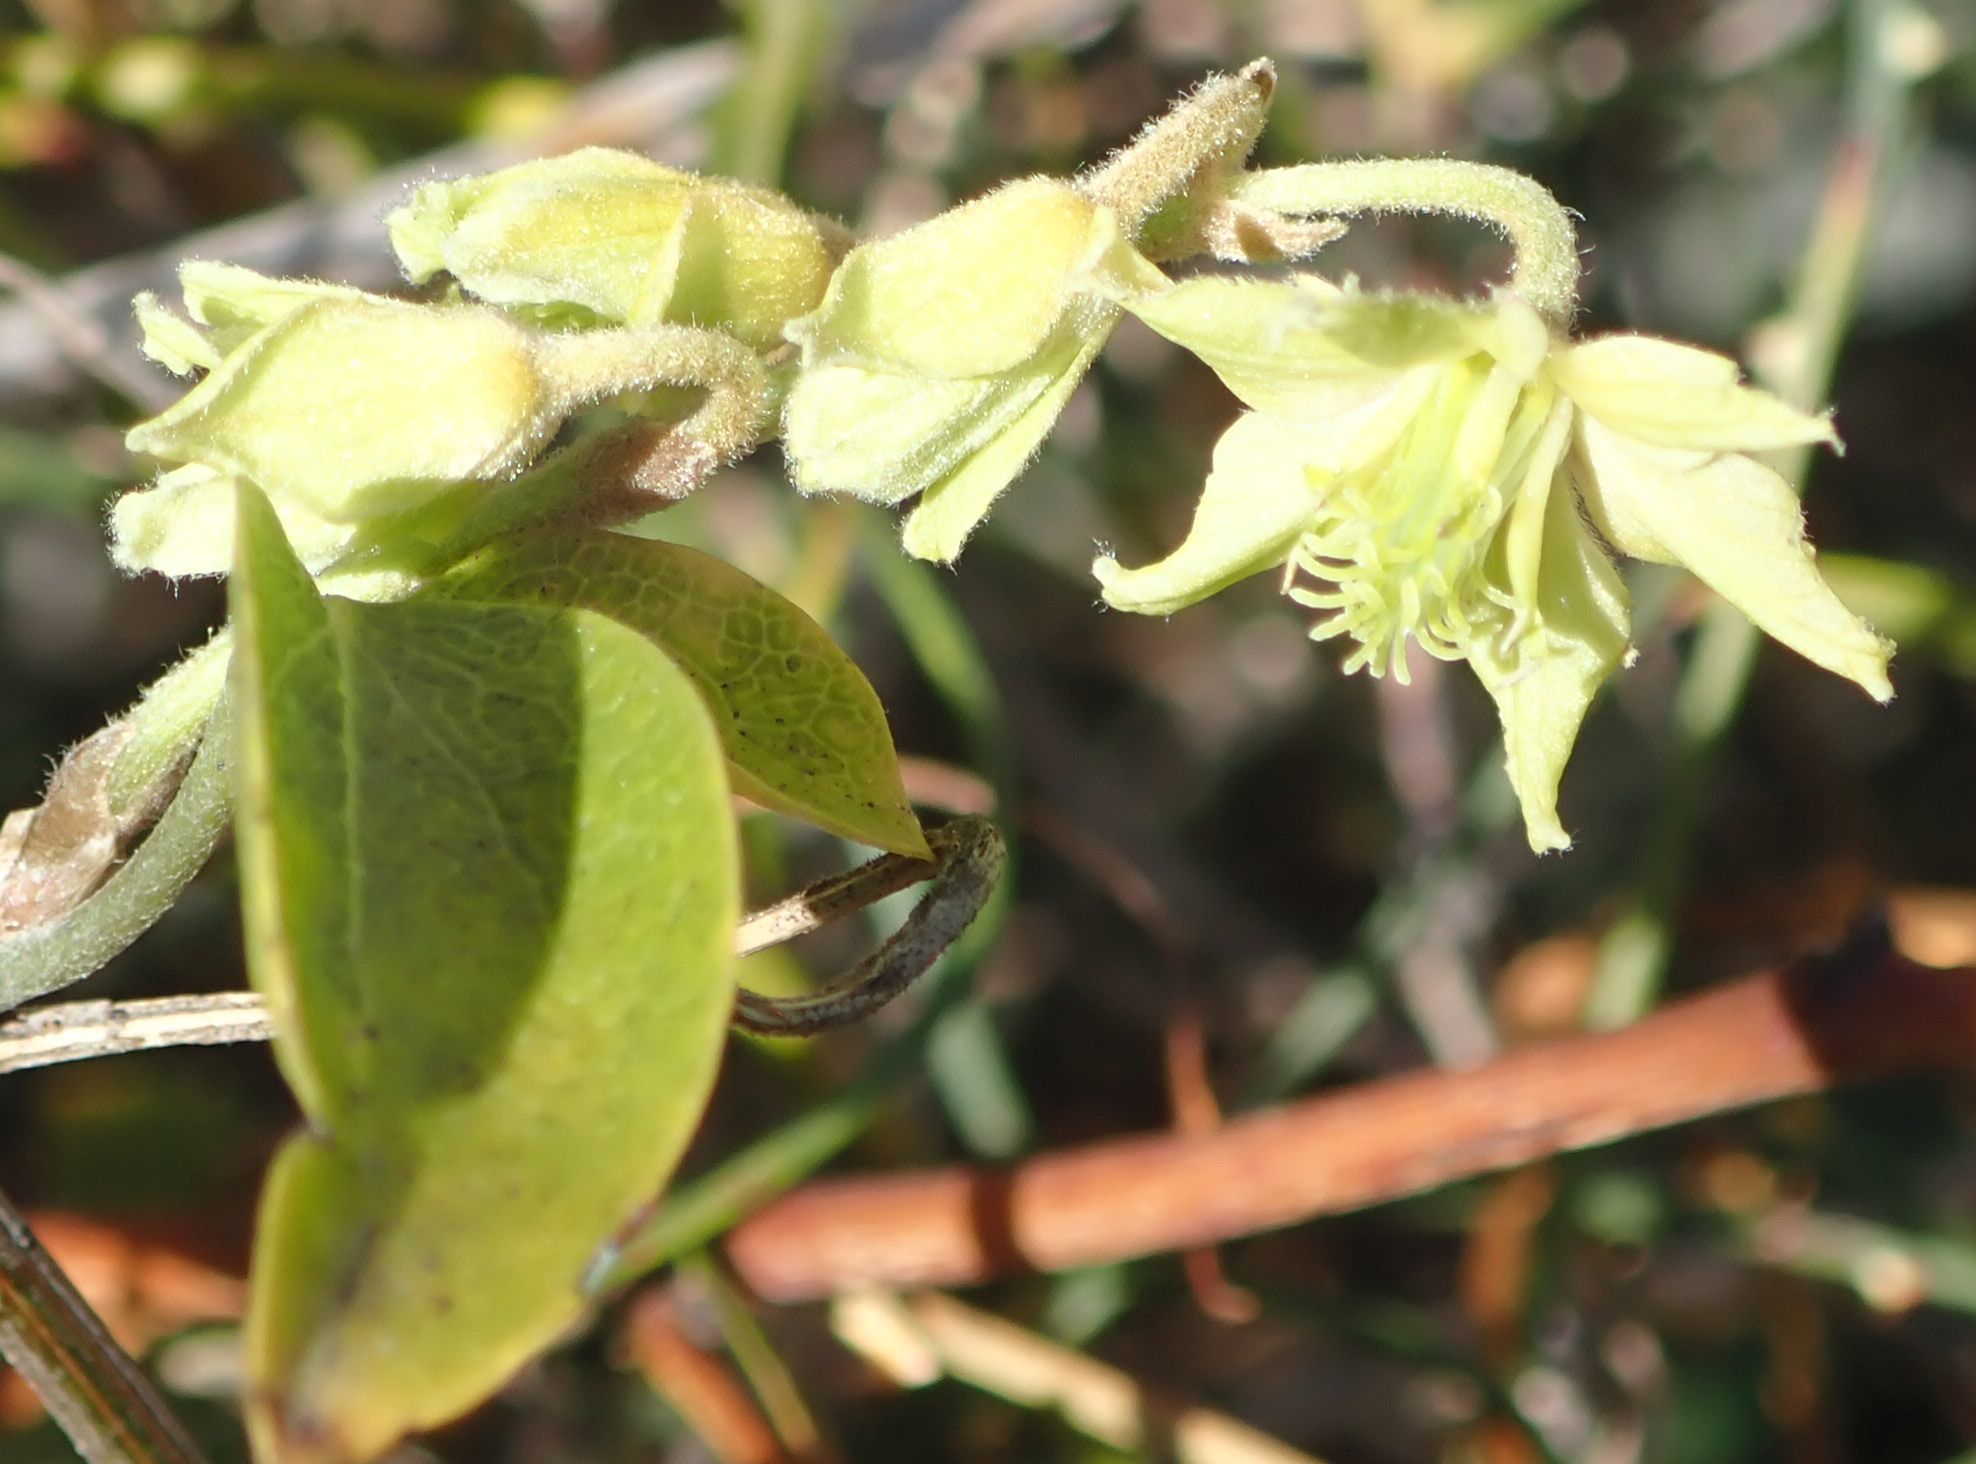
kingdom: Plantae
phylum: Tracheophyta
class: Magnoliopsida
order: Ranunculales
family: Ranunculaceae
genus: Clematis
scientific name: Clematis foetida
